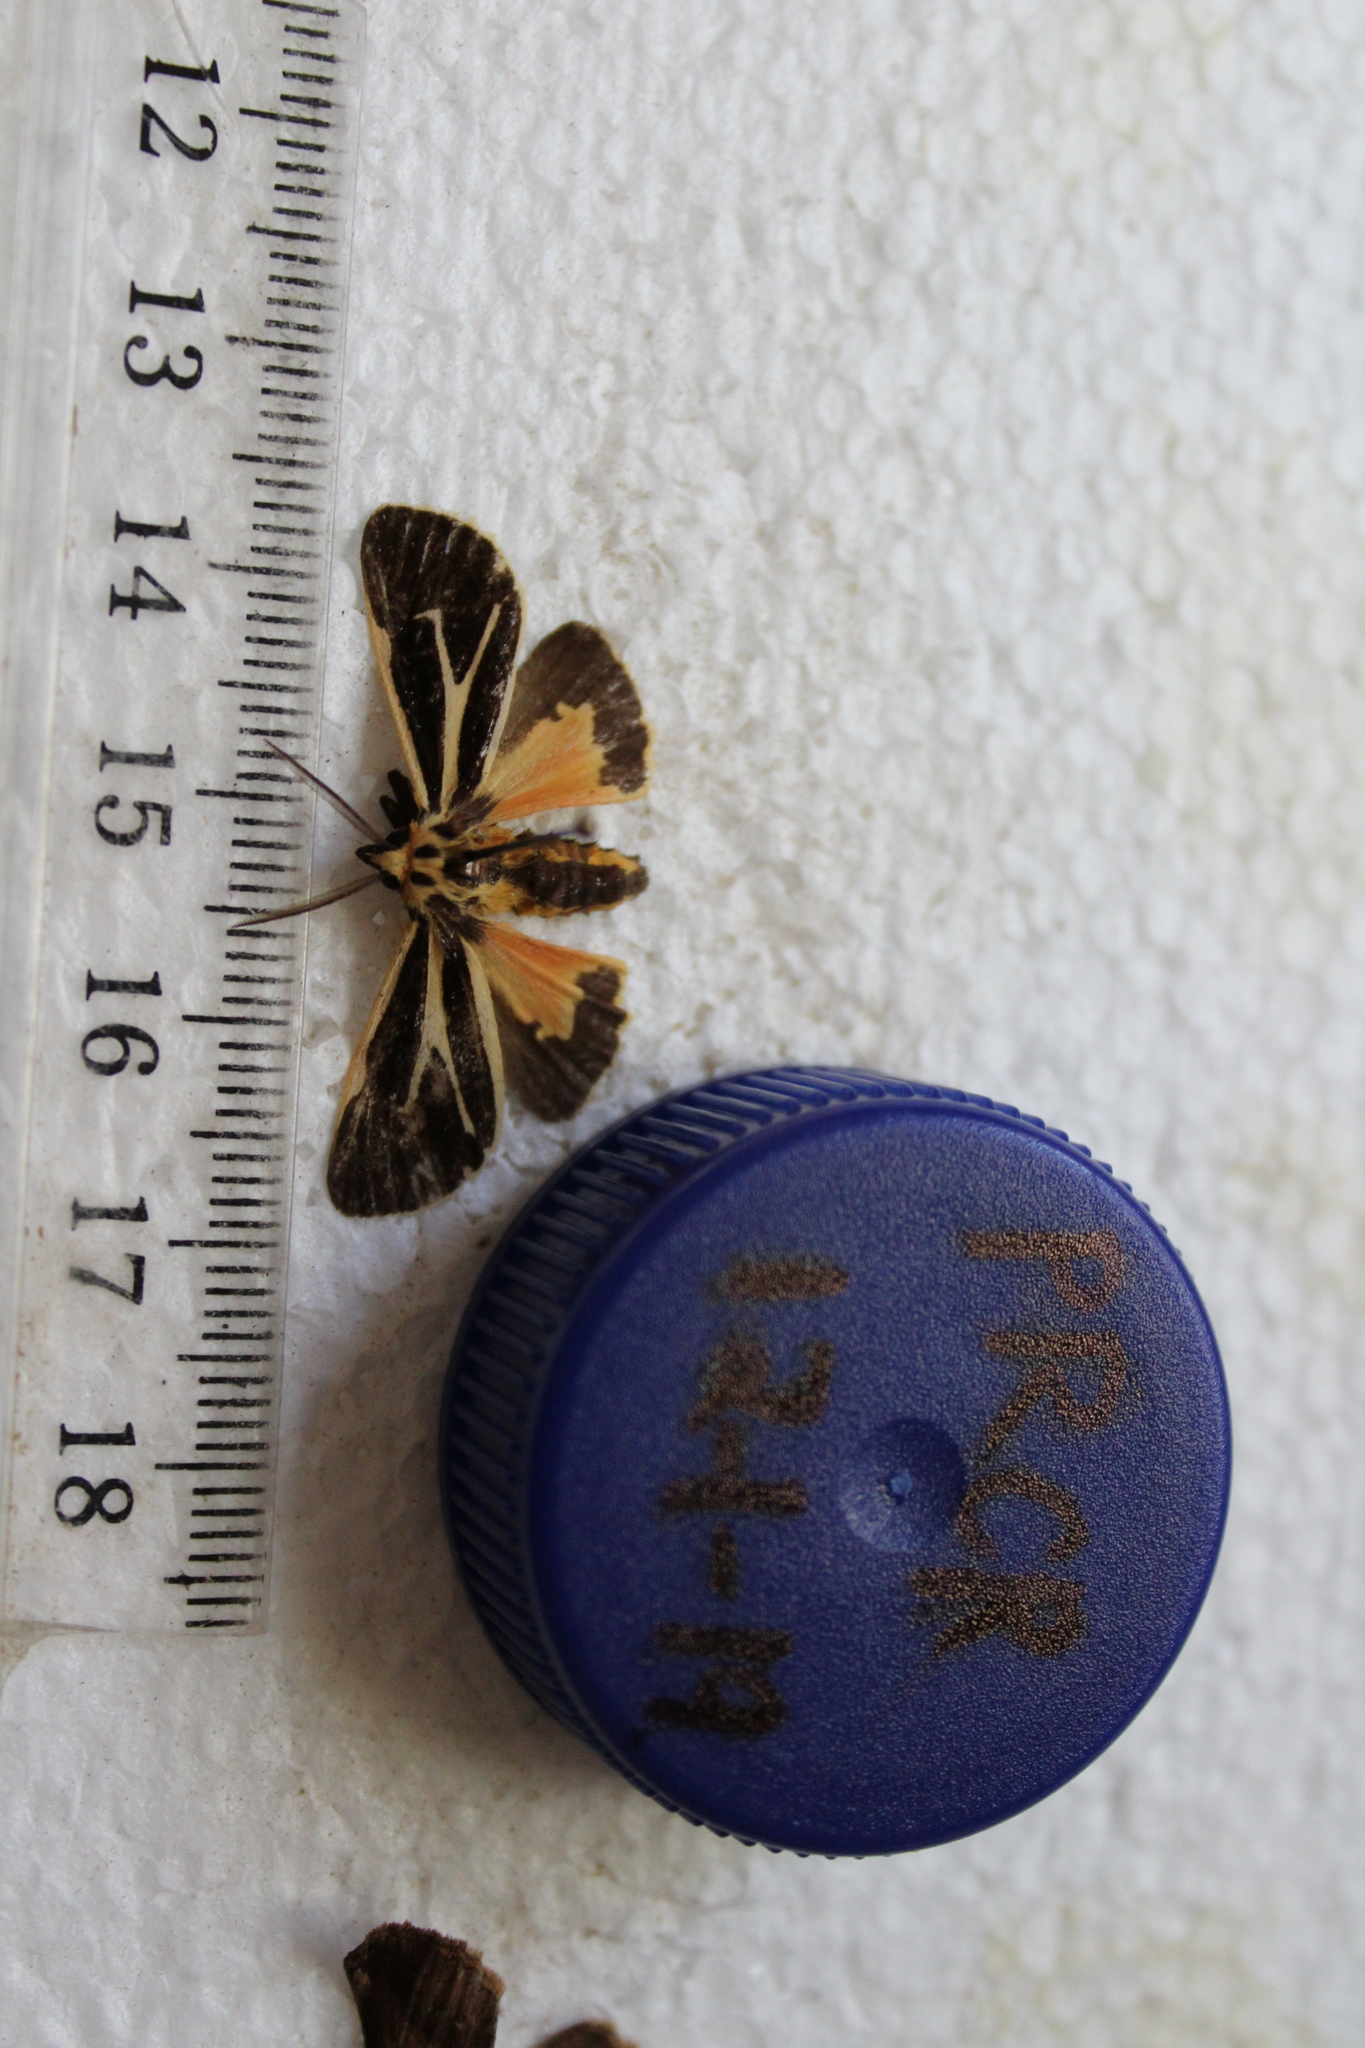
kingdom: Animalia
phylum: Arthropoda
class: Insecta
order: Lepidoptera
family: Erebidae
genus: Apantesis
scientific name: Apantesis vittata
